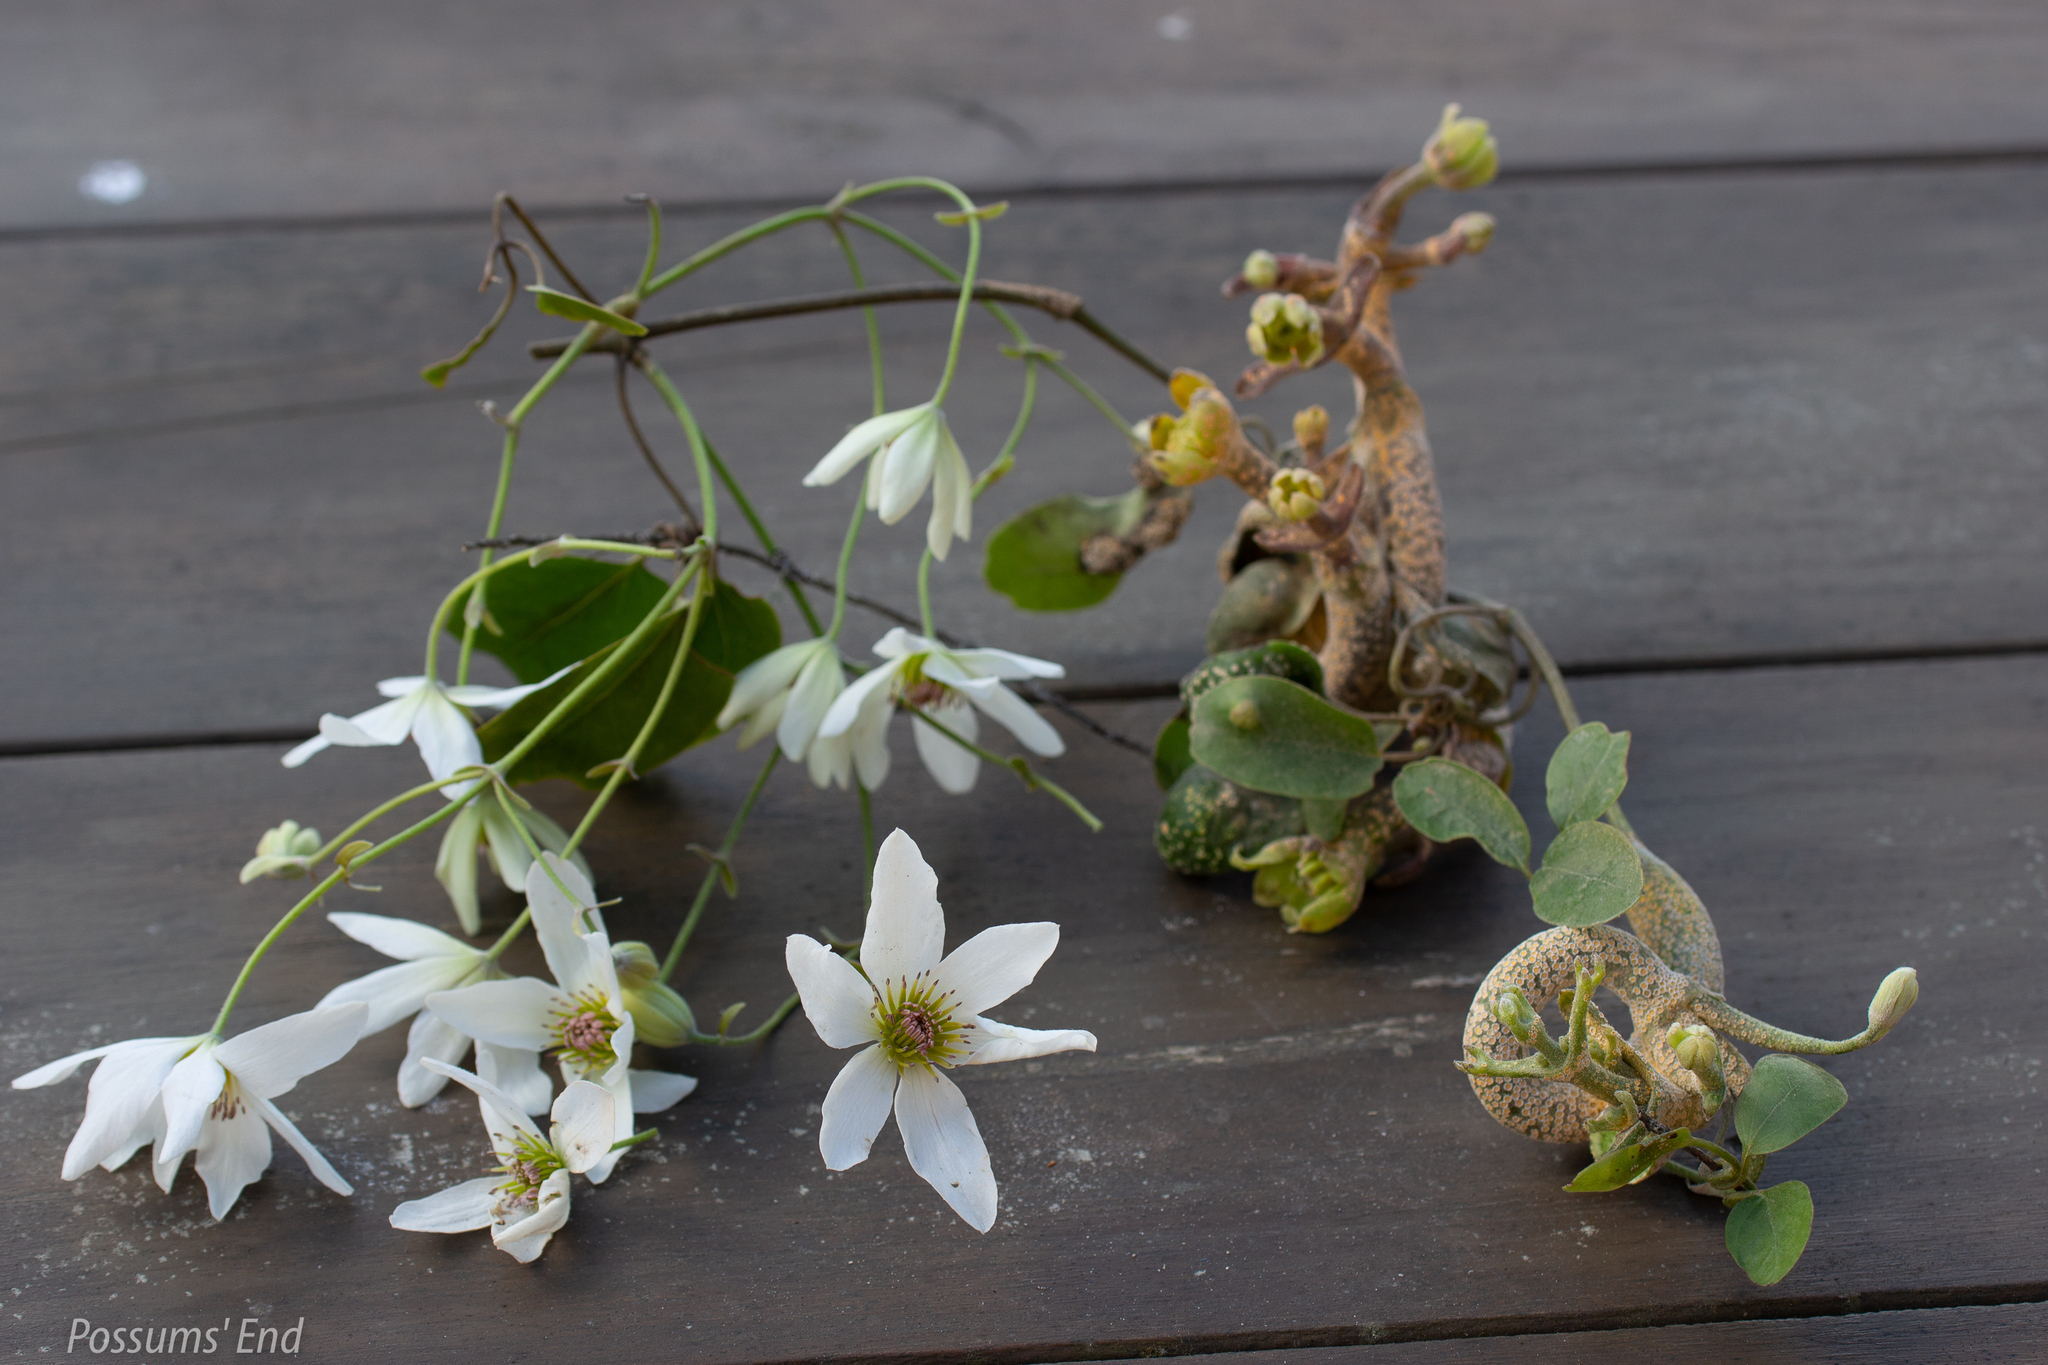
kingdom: Fungi
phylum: Basidiomycota
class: Pucciniomycetes
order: Pucciniales
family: Pucciniaceae
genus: Puccinia
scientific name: Puccinia otagensis
